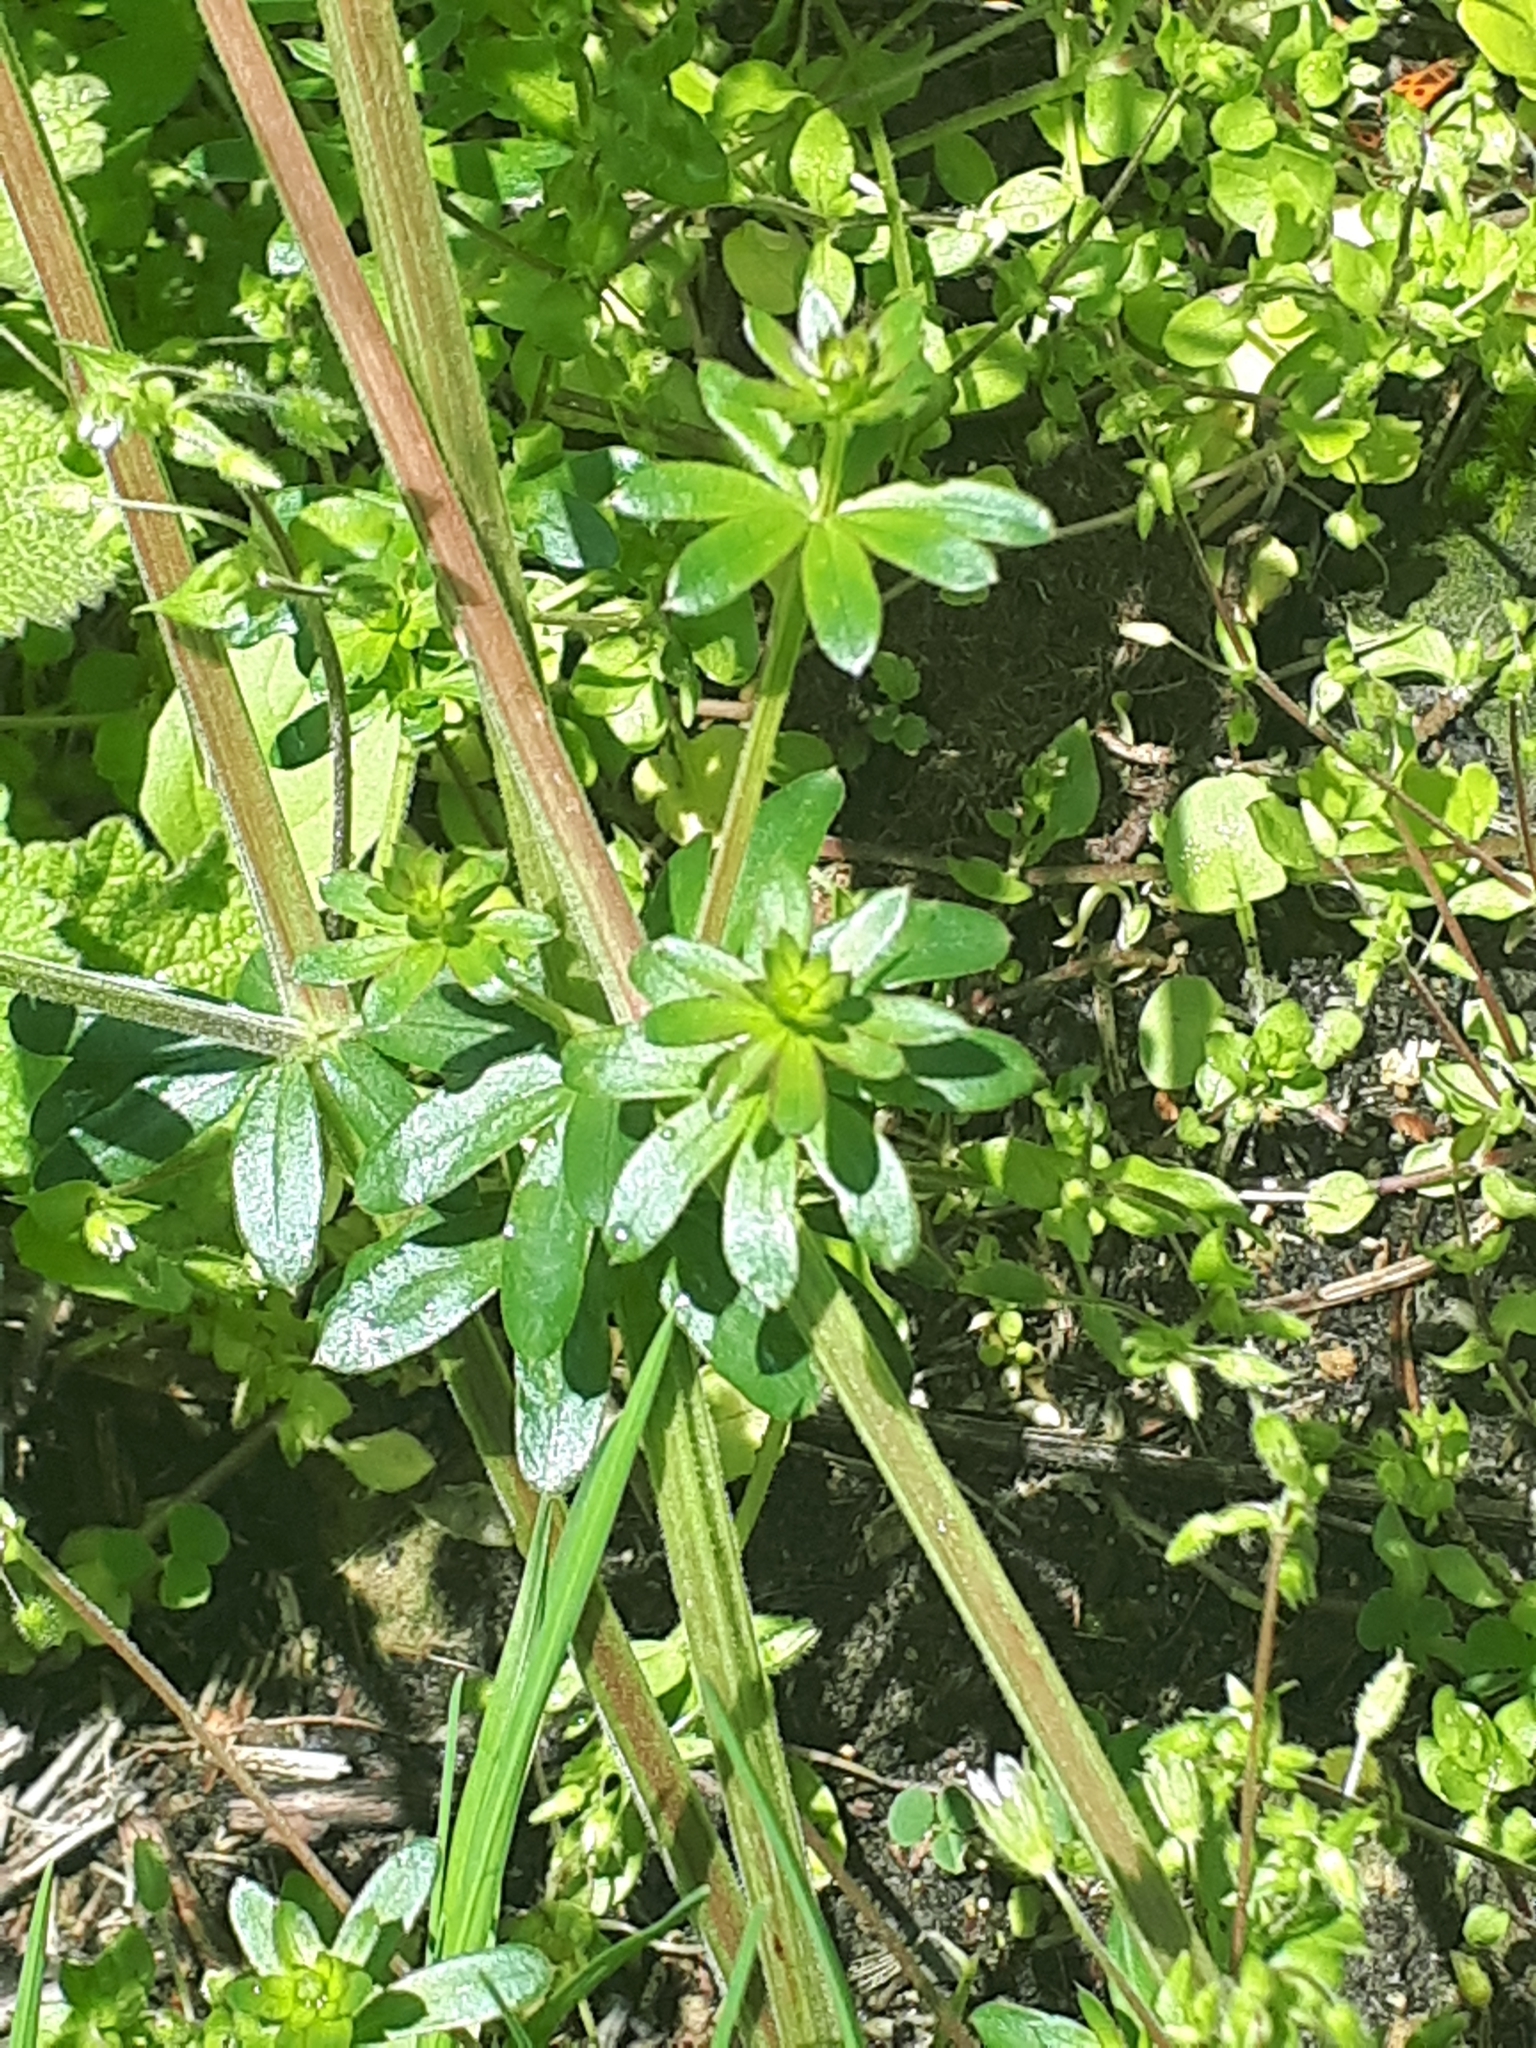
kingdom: Plantae
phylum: Tracheophyta
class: Magnoliopsida
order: Gentianales
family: Rubiaceae
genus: Galium
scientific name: Galium mollugo
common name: Hedge bedstraw
